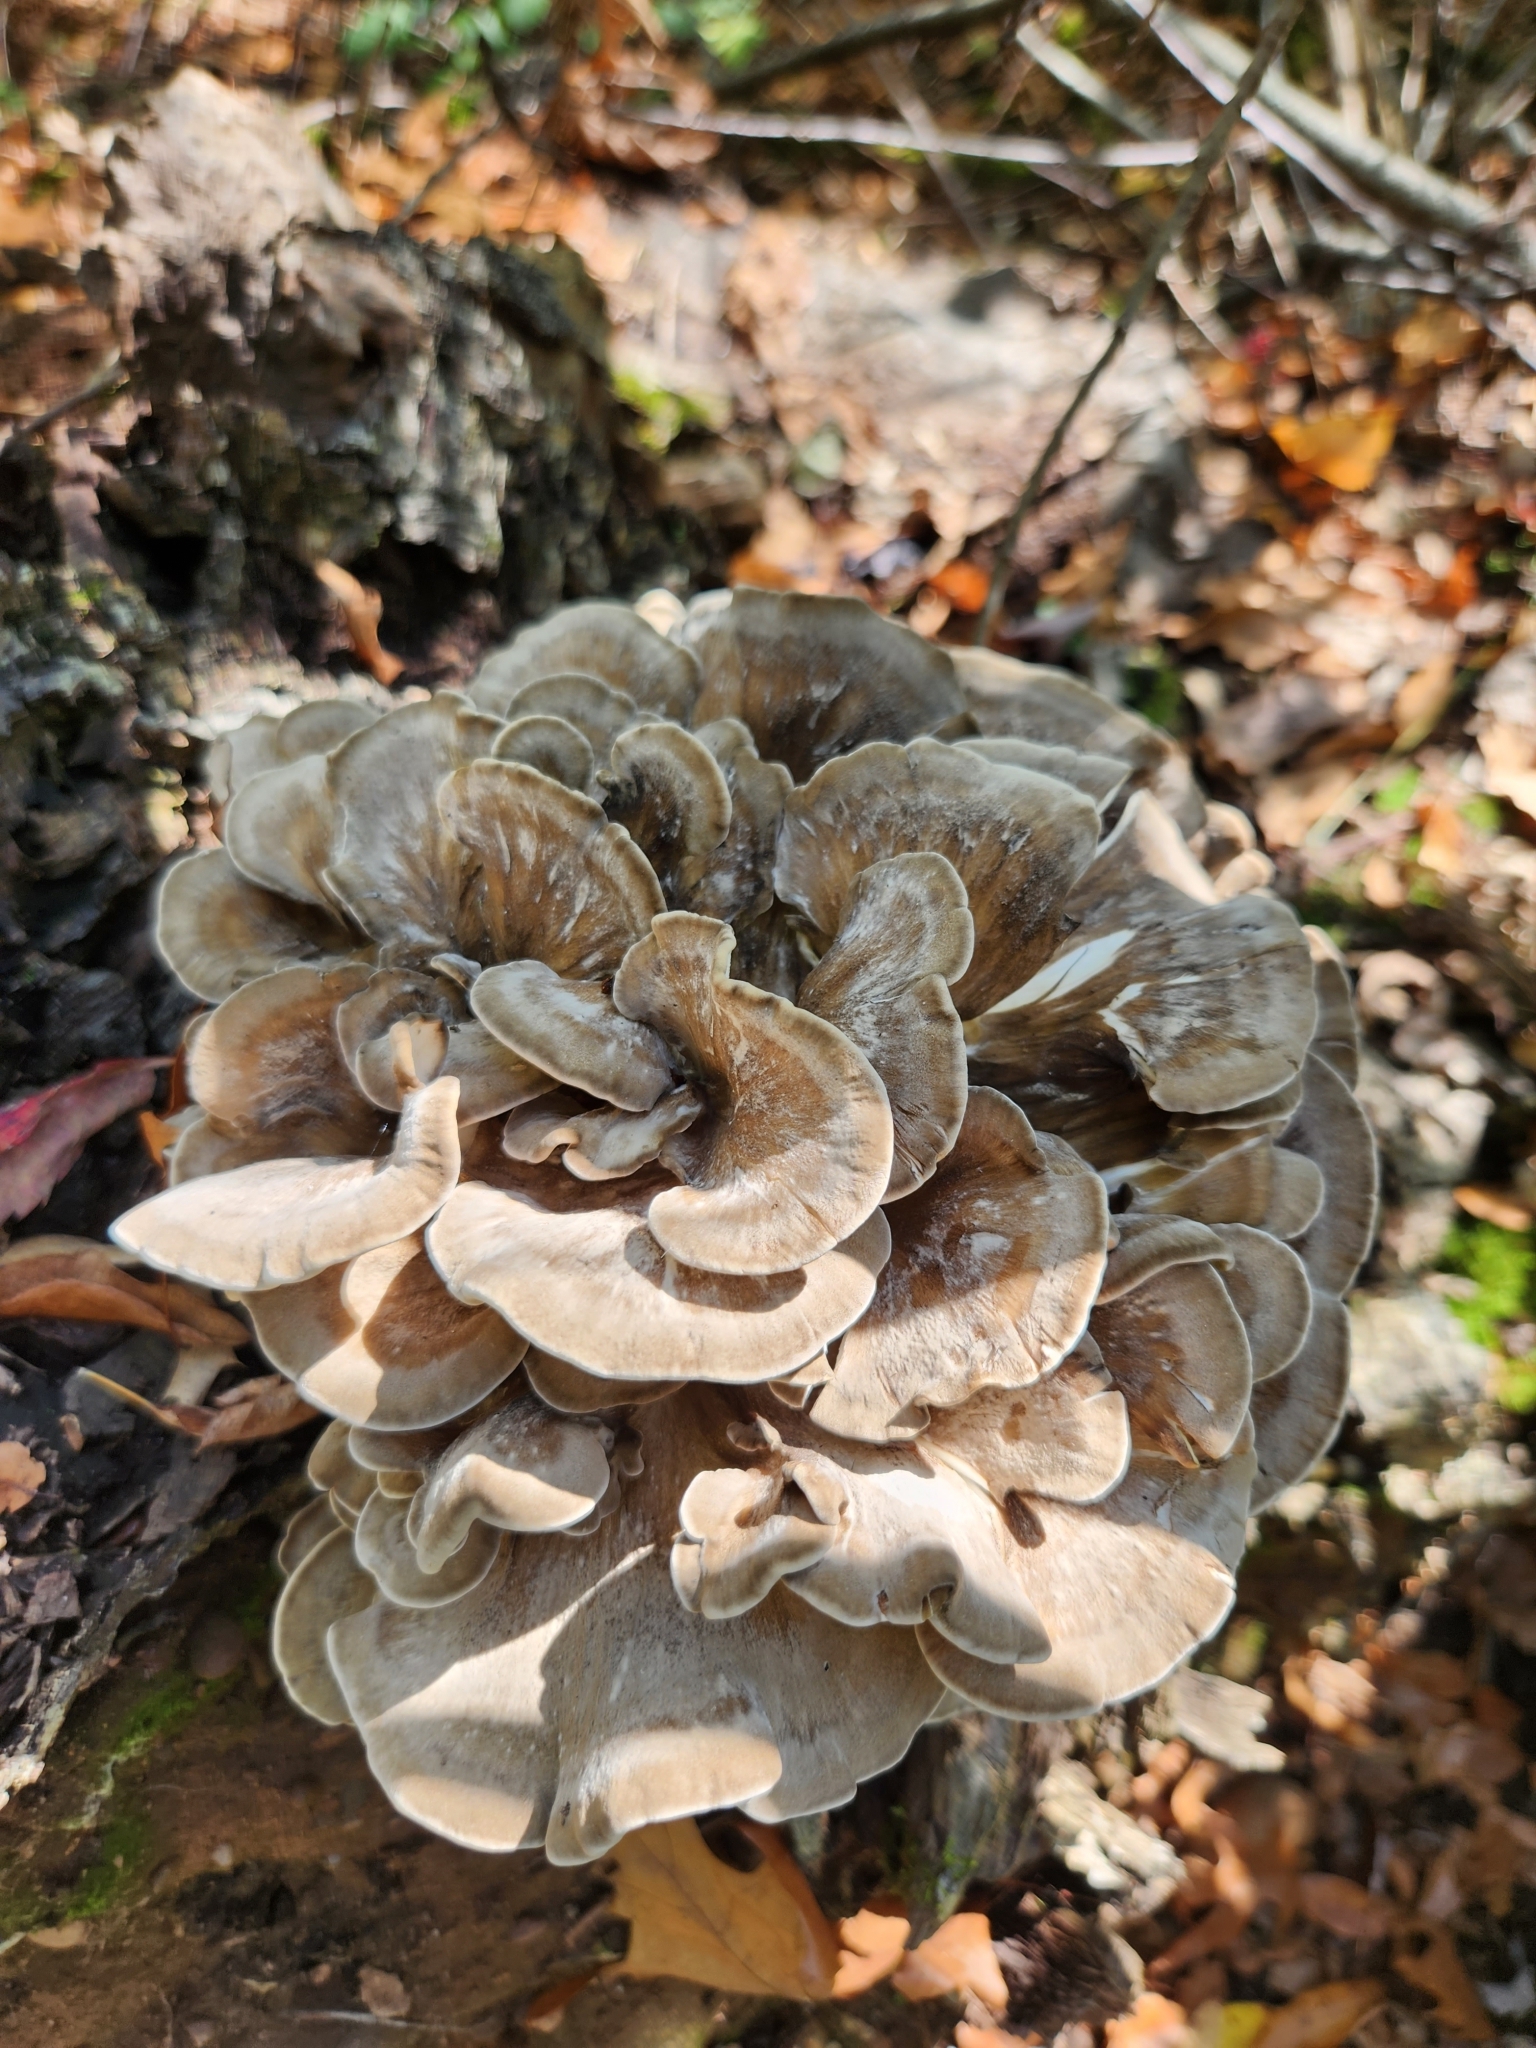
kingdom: Fungi
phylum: Basidiomycota
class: Agaricomycetes
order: Polyporales
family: Grifolaceae
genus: Grifola
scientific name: Grifola frondosa
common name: Hen of the woods
